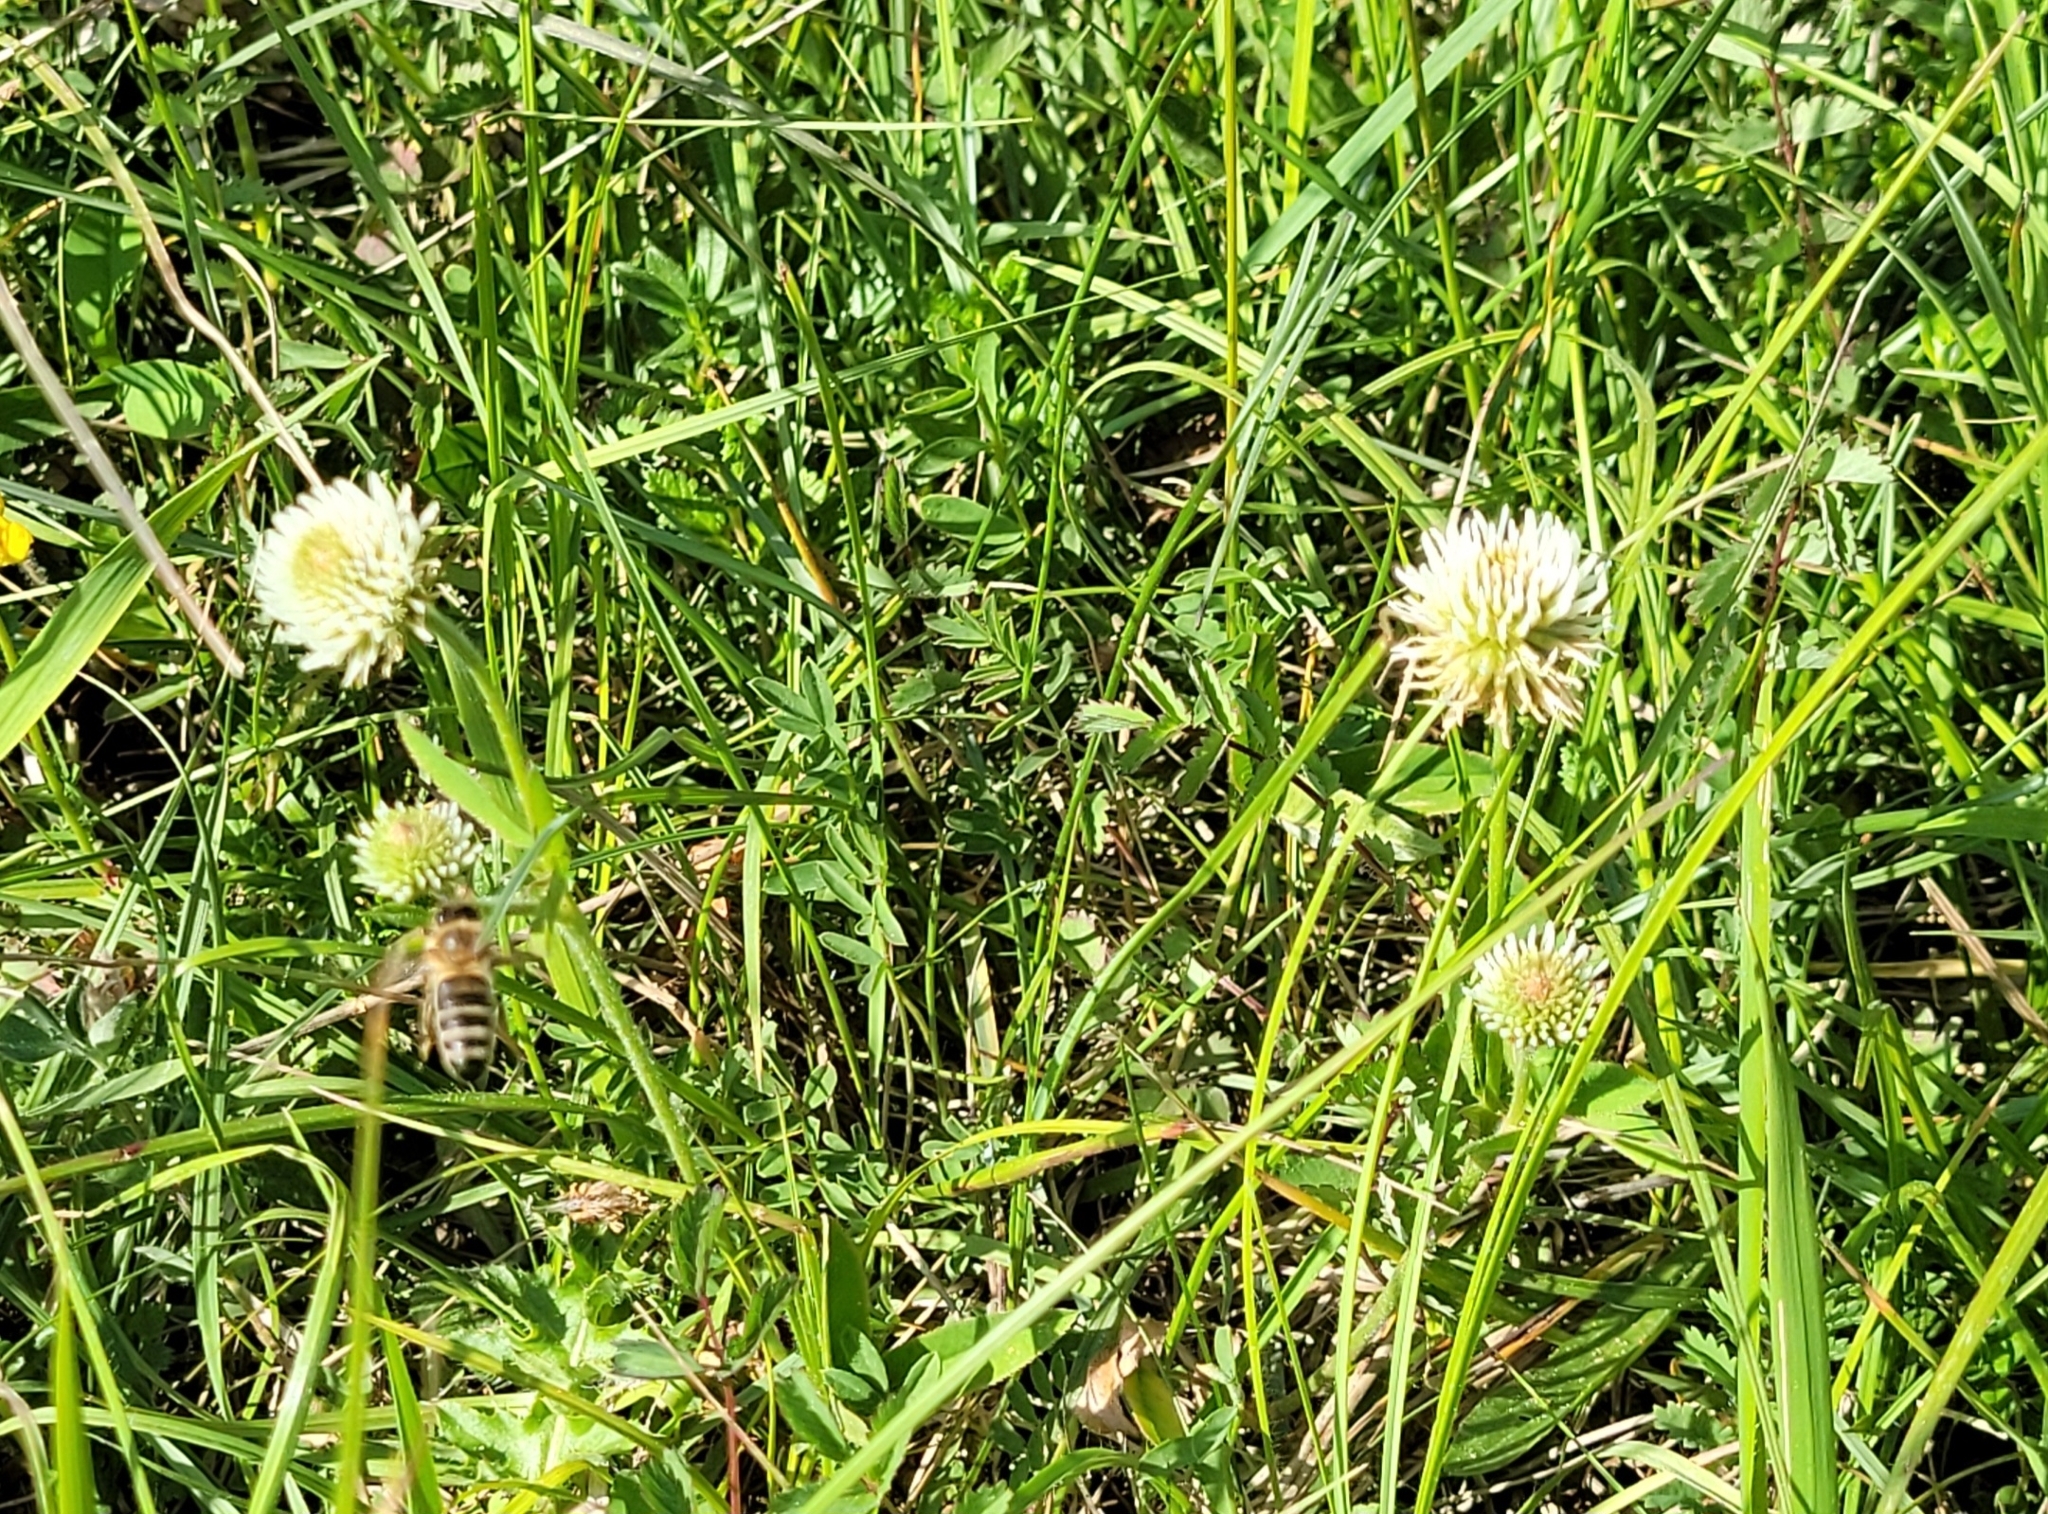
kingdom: Plantae
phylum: Tracheophyta
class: Magnoliopsida
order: Fabales
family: Fabaceae
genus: Trifolium
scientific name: Trifolium montanum
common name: Mountain clover
